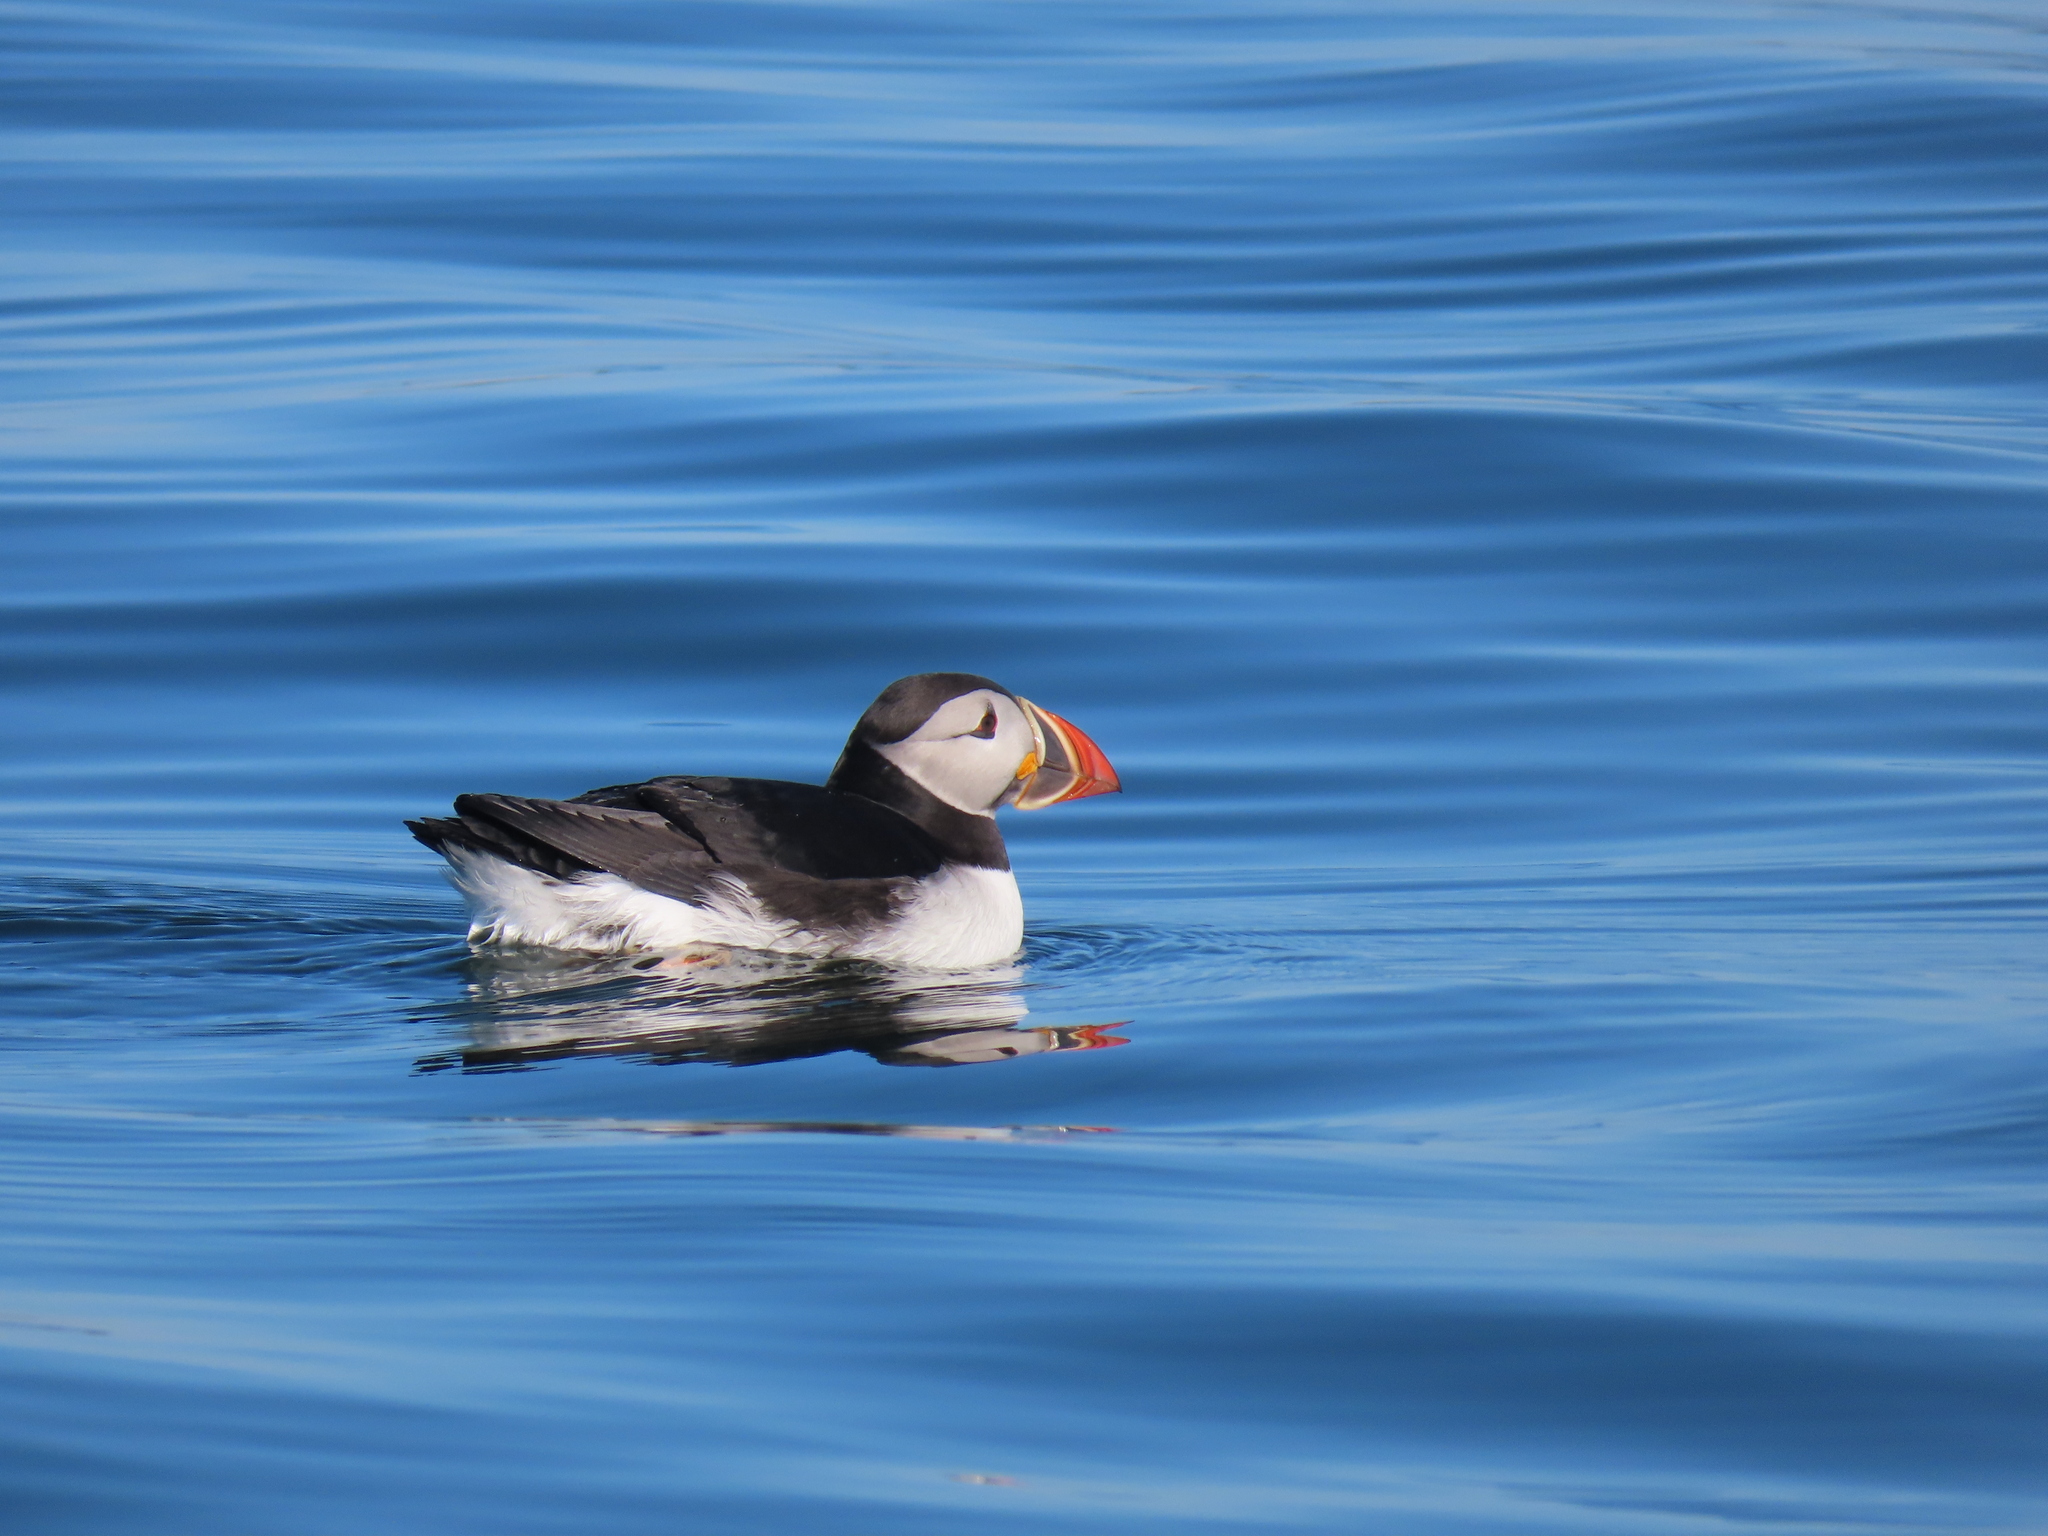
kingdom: Animalia
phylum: Chordata
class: Aves
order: Charadriiformes
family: Alcidae
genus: Fratercula
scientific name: Fratercula arctica
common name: Atlantic puffin
